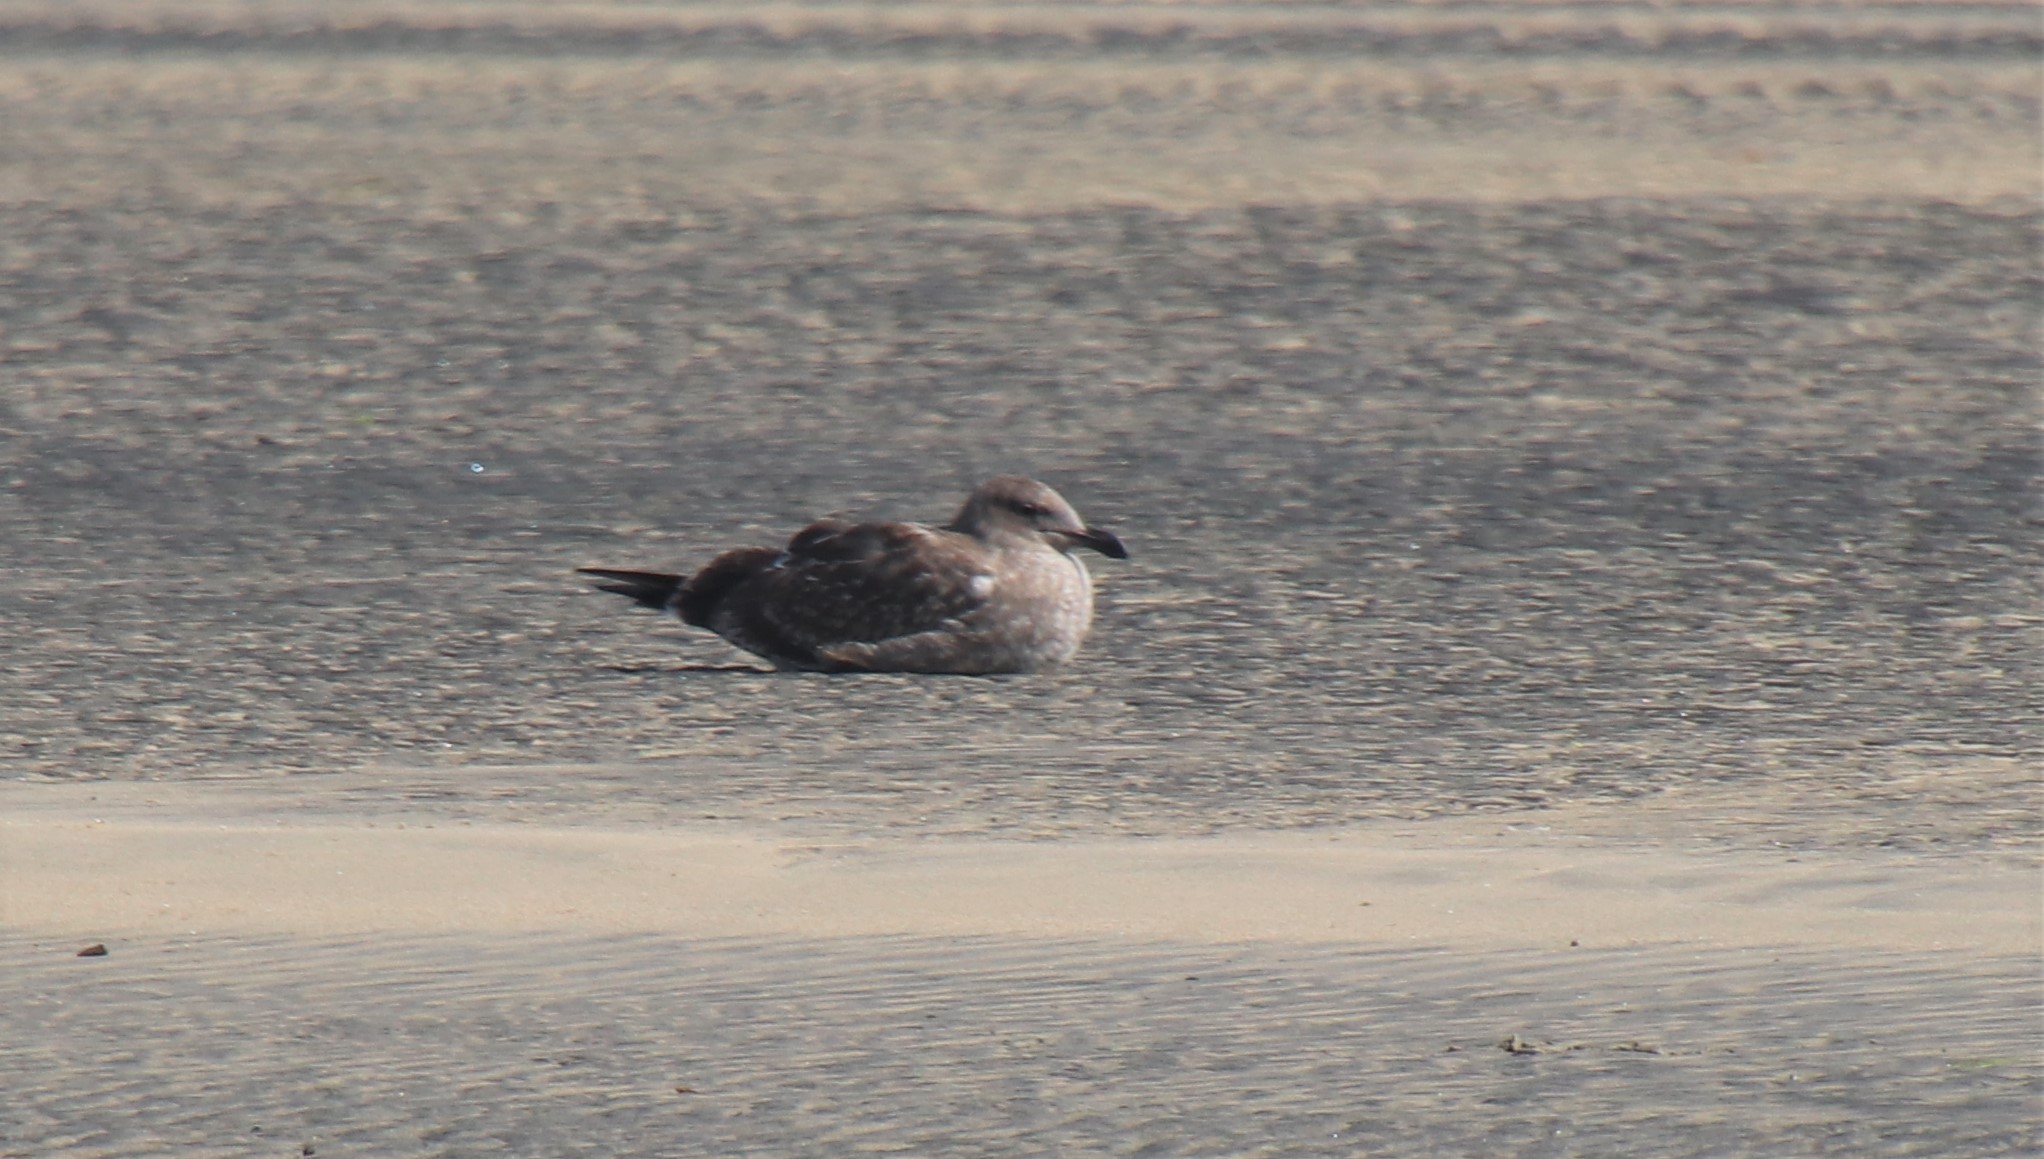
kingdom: Animalia
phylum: Chordata
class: Aves
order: Charadriiformes
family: Laridae
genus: Larus
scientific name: Larus occidentalis
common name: Western gull
